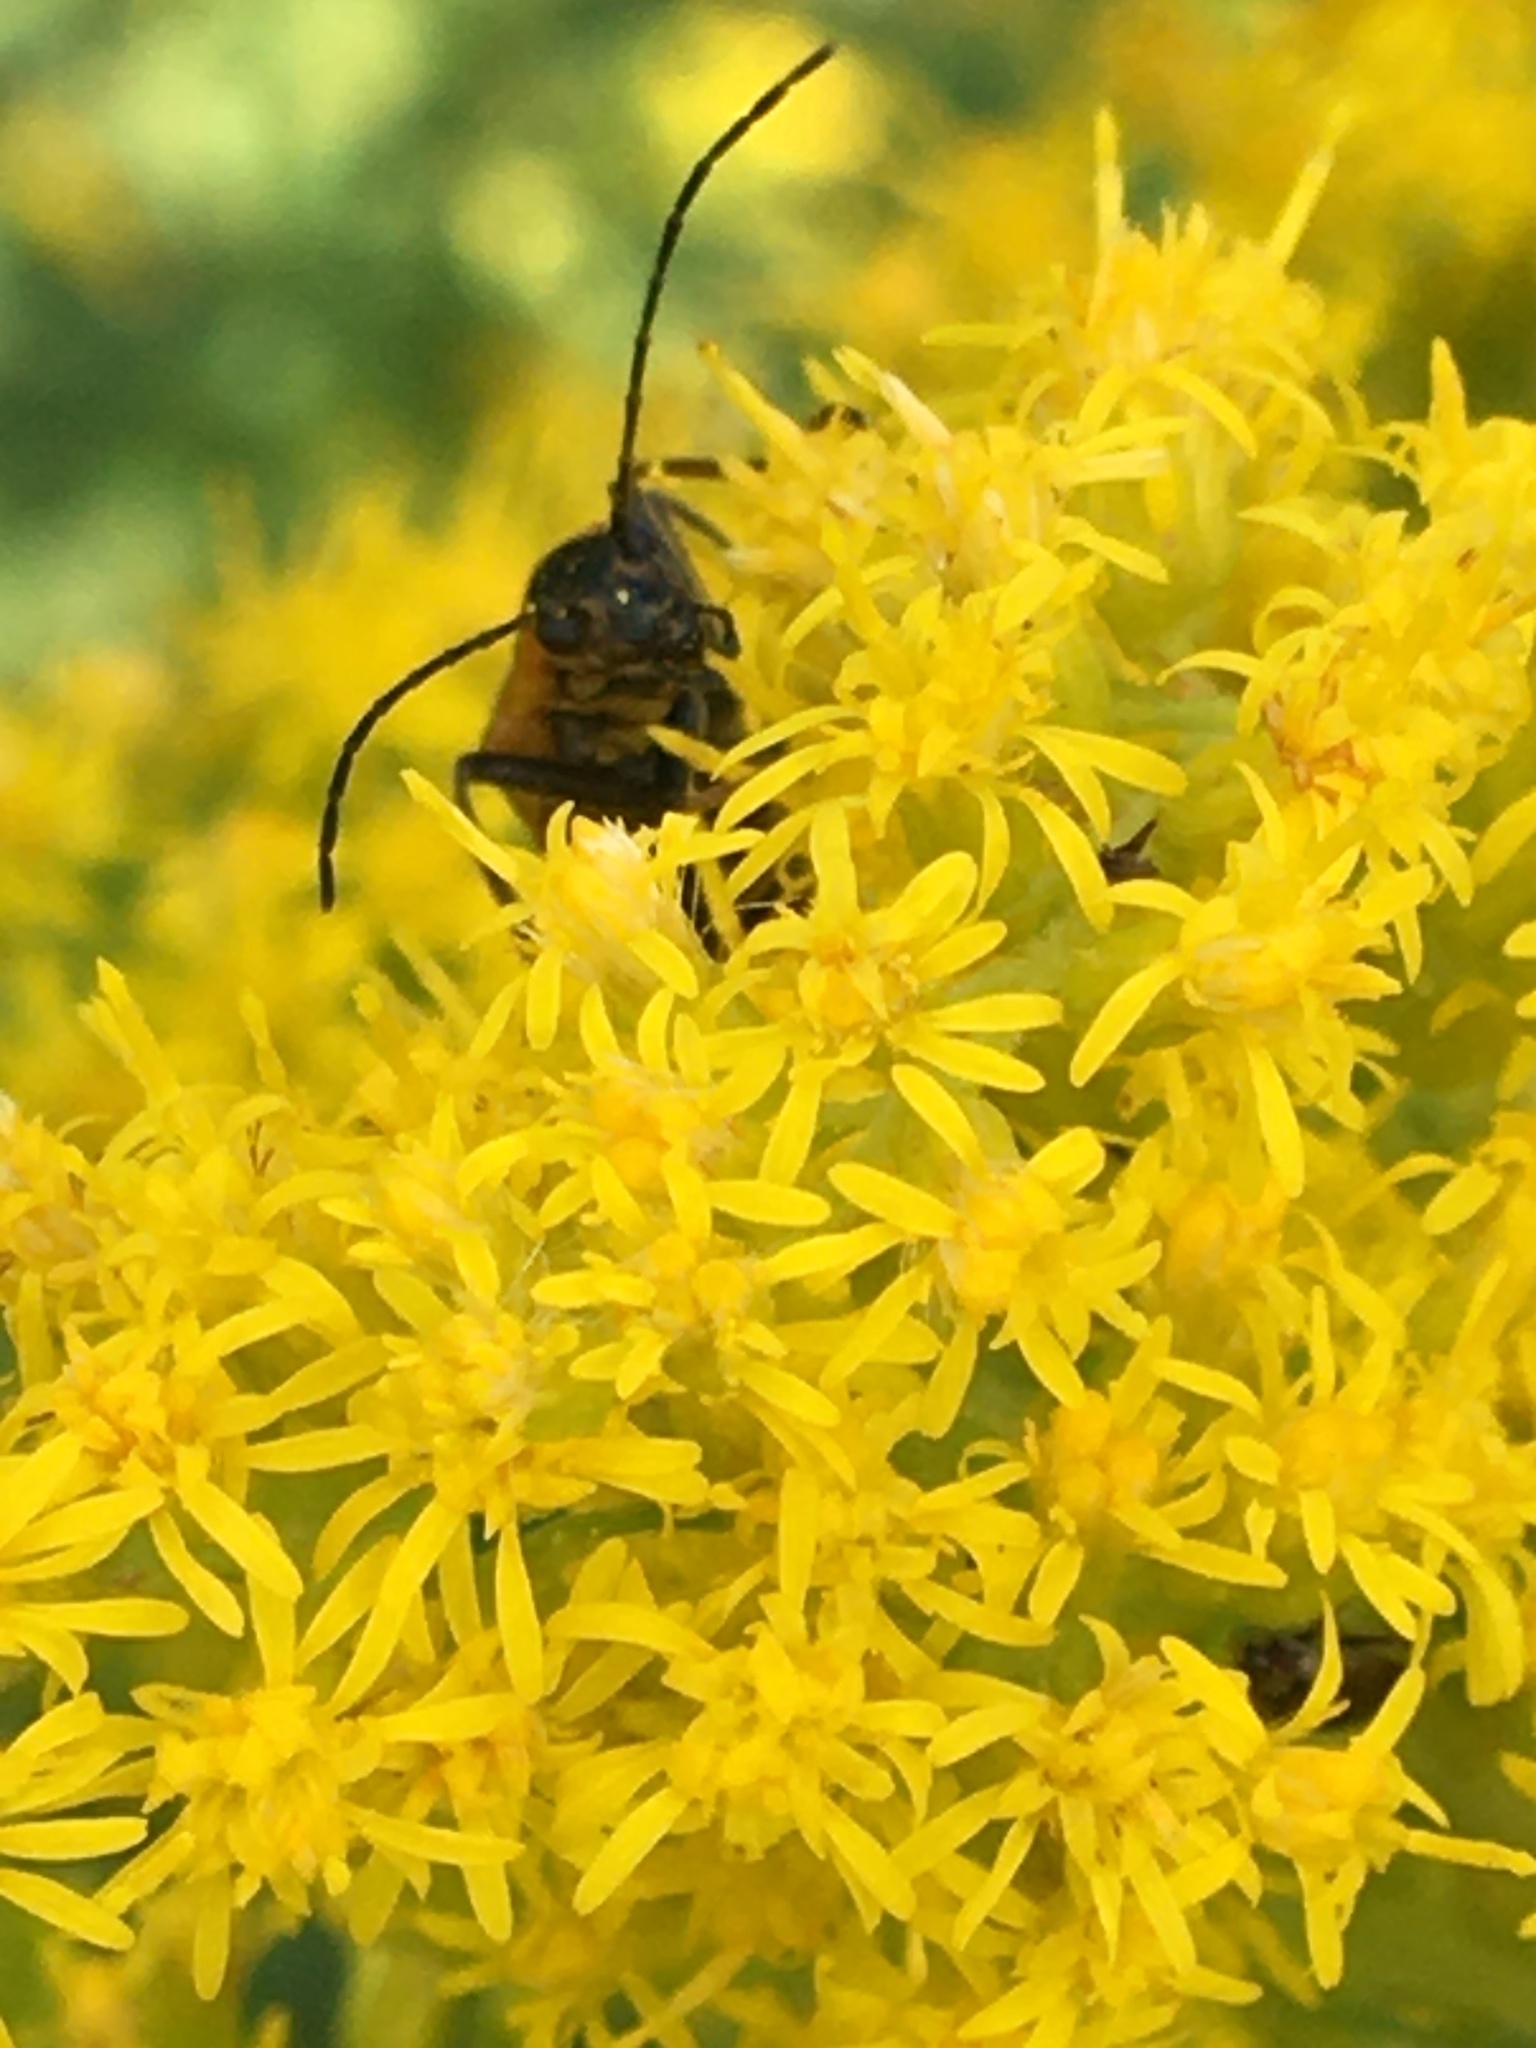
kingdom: Animalia
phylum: Arthropoda
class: Insecta
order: Coleoptera
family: Cantharidae
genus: Chauliognathus
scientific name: Chauliognathus pensylvanicus
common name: Goldenrod soldier beetle
